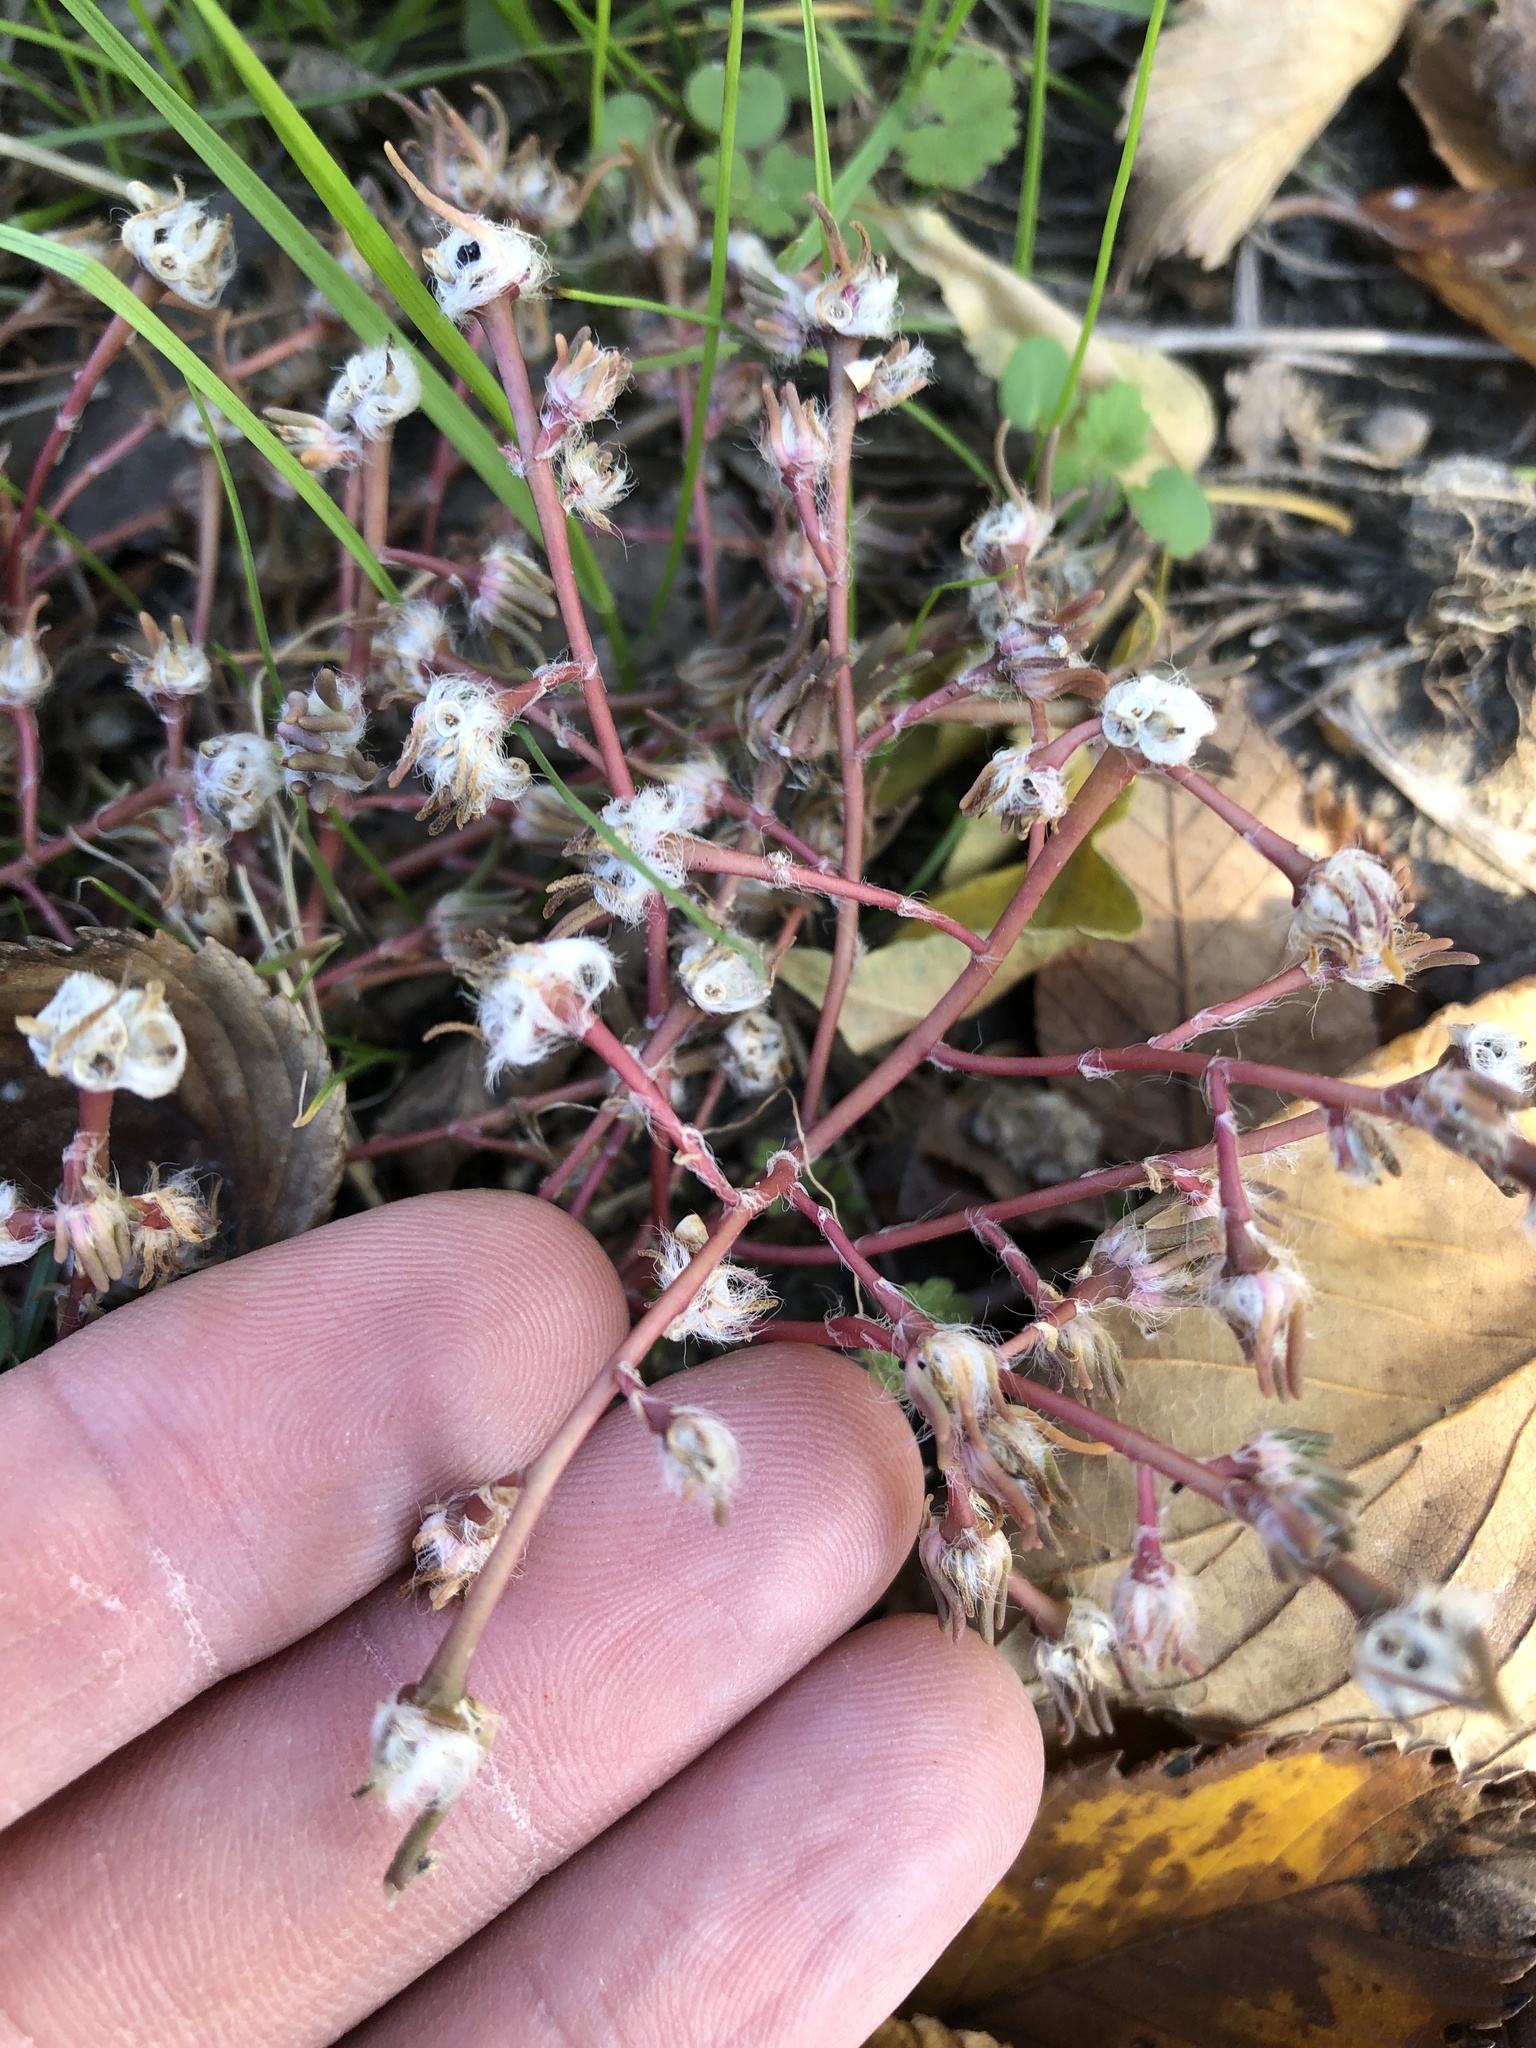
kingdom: Plantae
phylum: Tracheophyta
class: Magnoliopsida
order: Caryophyllales
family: Portulacaceae
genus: Portulaca
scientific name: Portulaca pilosa
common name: Kiss me quick
